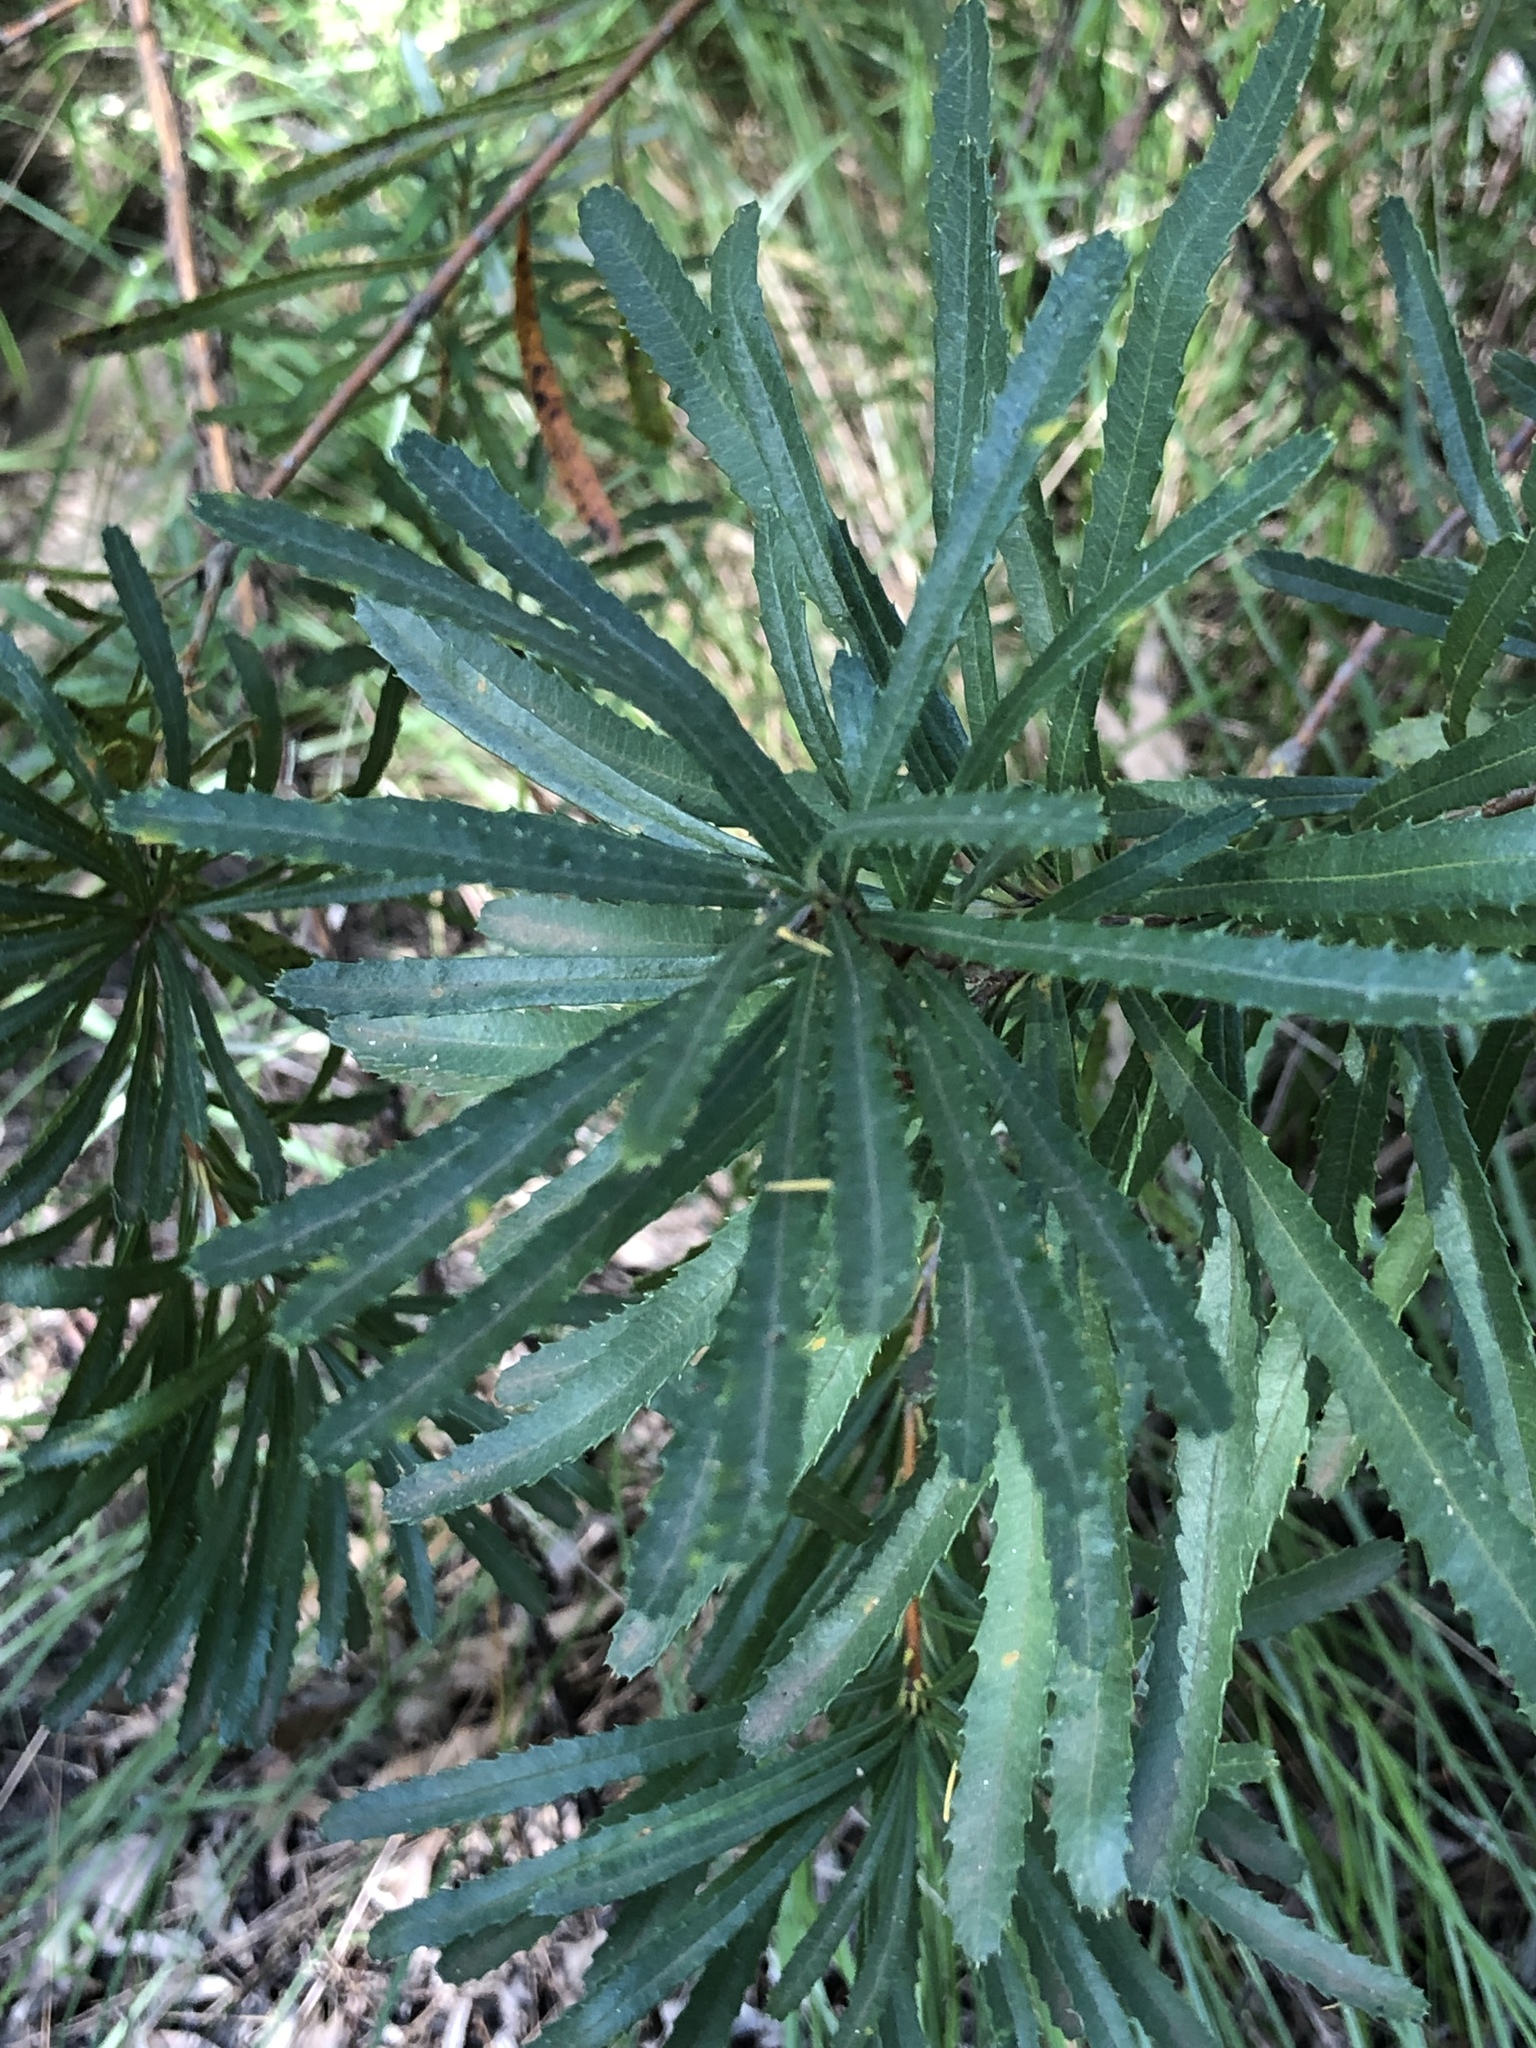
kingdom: Plantae
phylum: Tracheophyta
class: Magnoliopsida
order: Proteales
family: Proteaceae
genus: Banksia
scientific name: Banksia spinulosa
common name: Hairpin banksia
